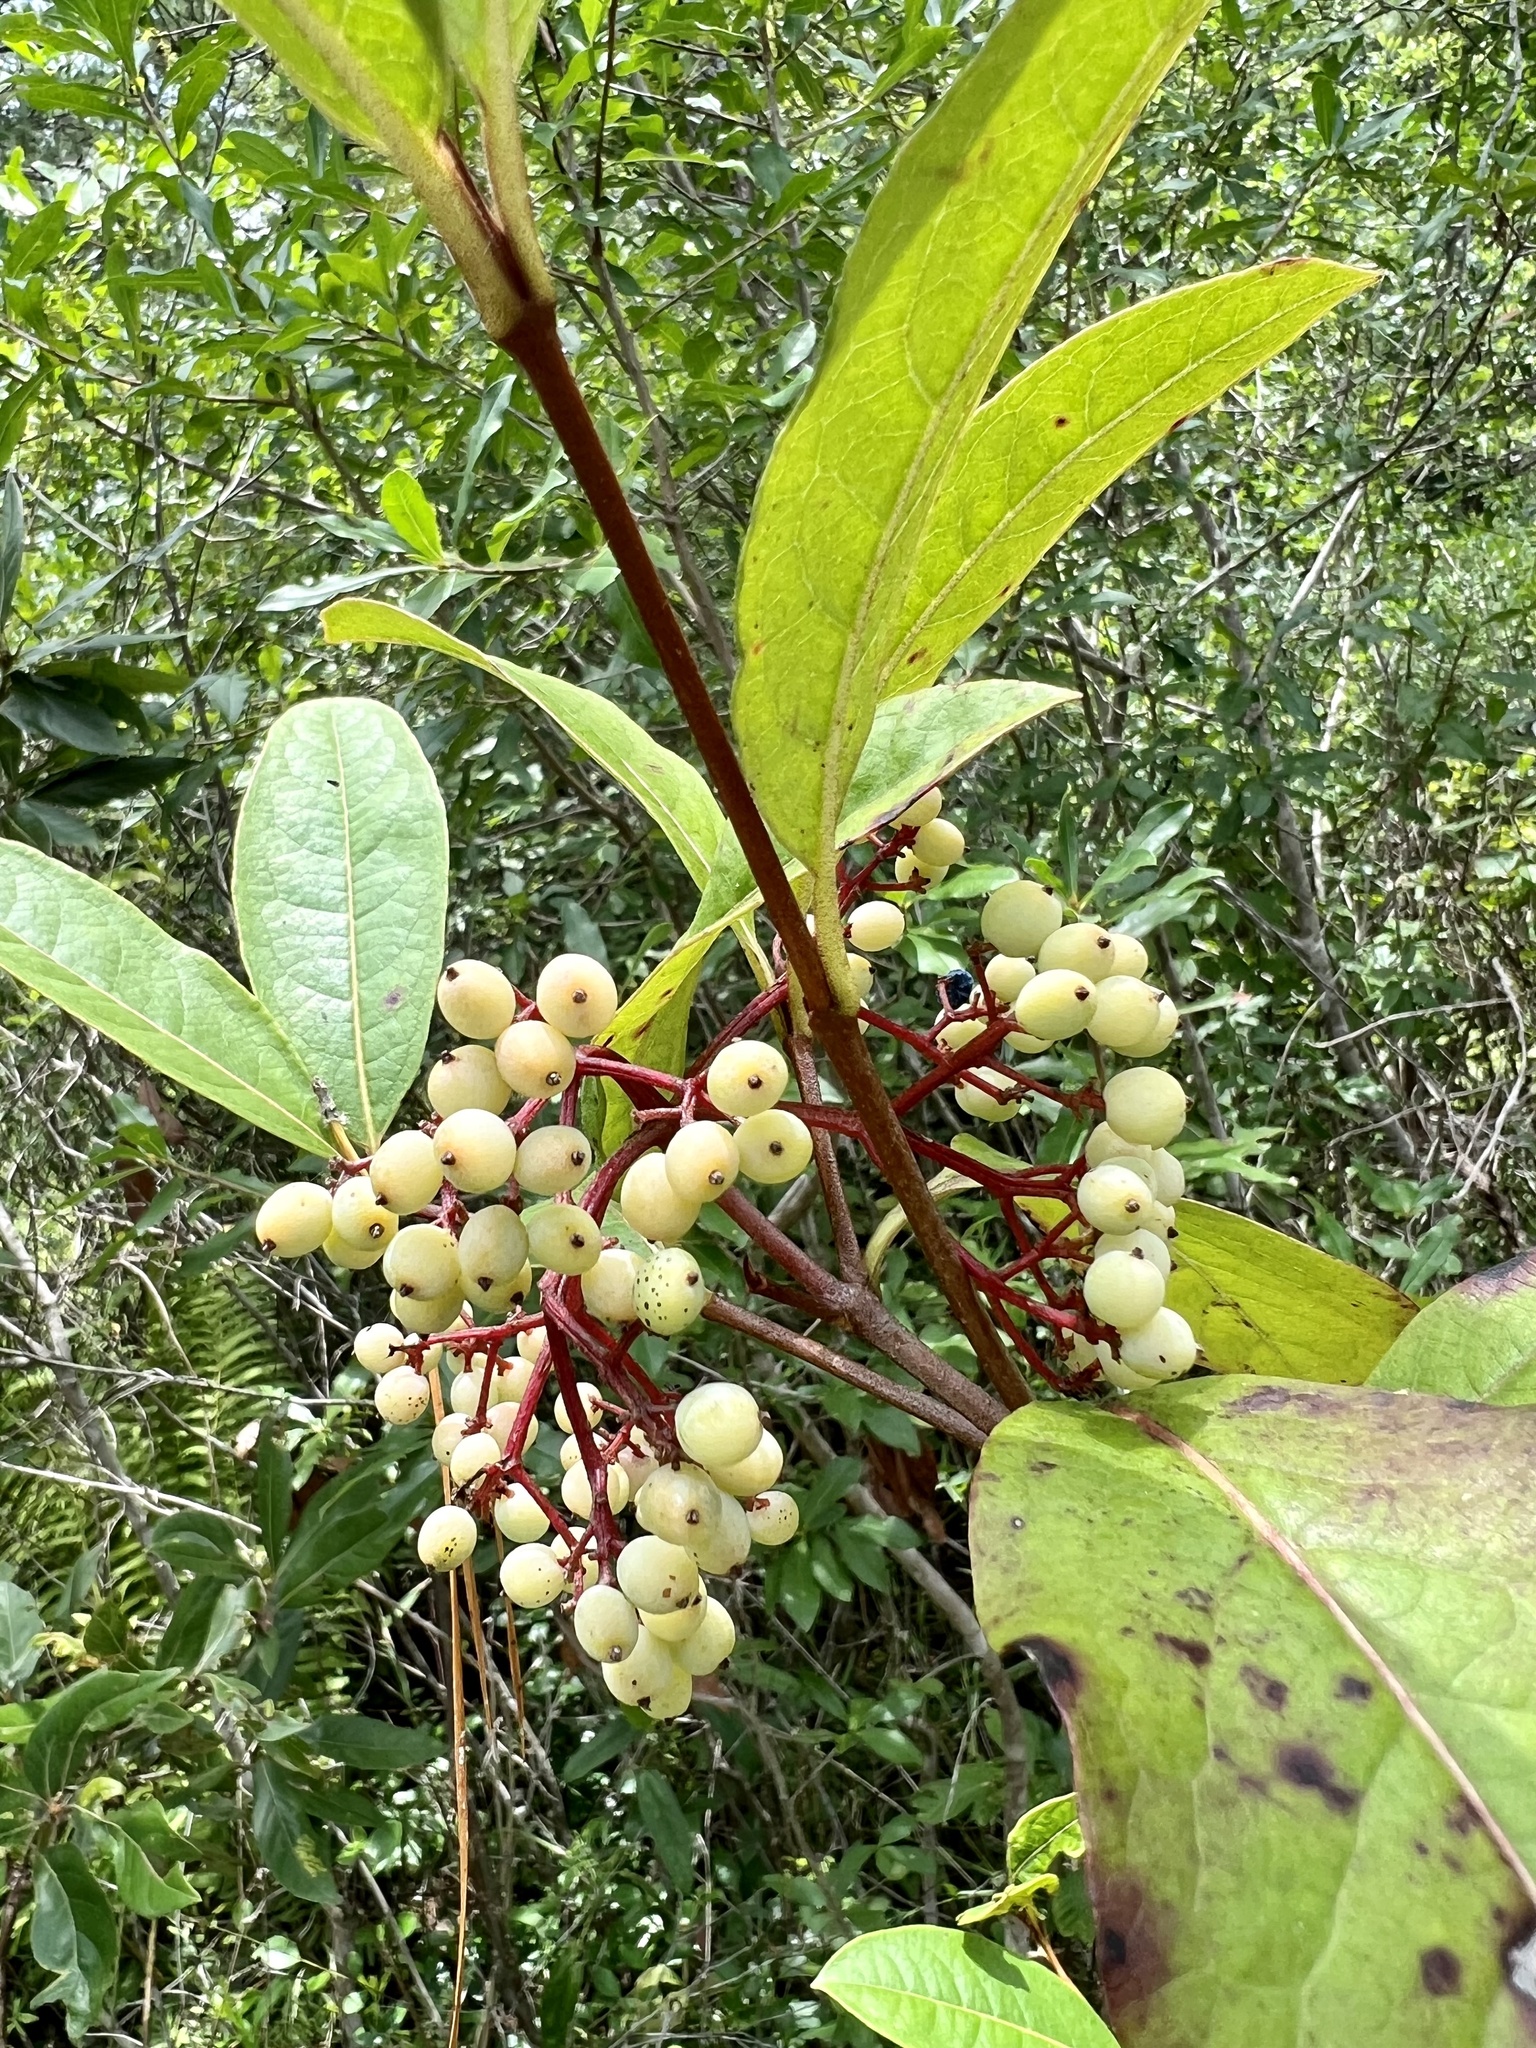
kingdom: Plantae
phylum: Tracheophyta
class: Magnoliopsida
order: Dipsacales
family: Viburnaceae
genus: Viburnum
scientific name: Viburnum nudum
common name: Possum haw
